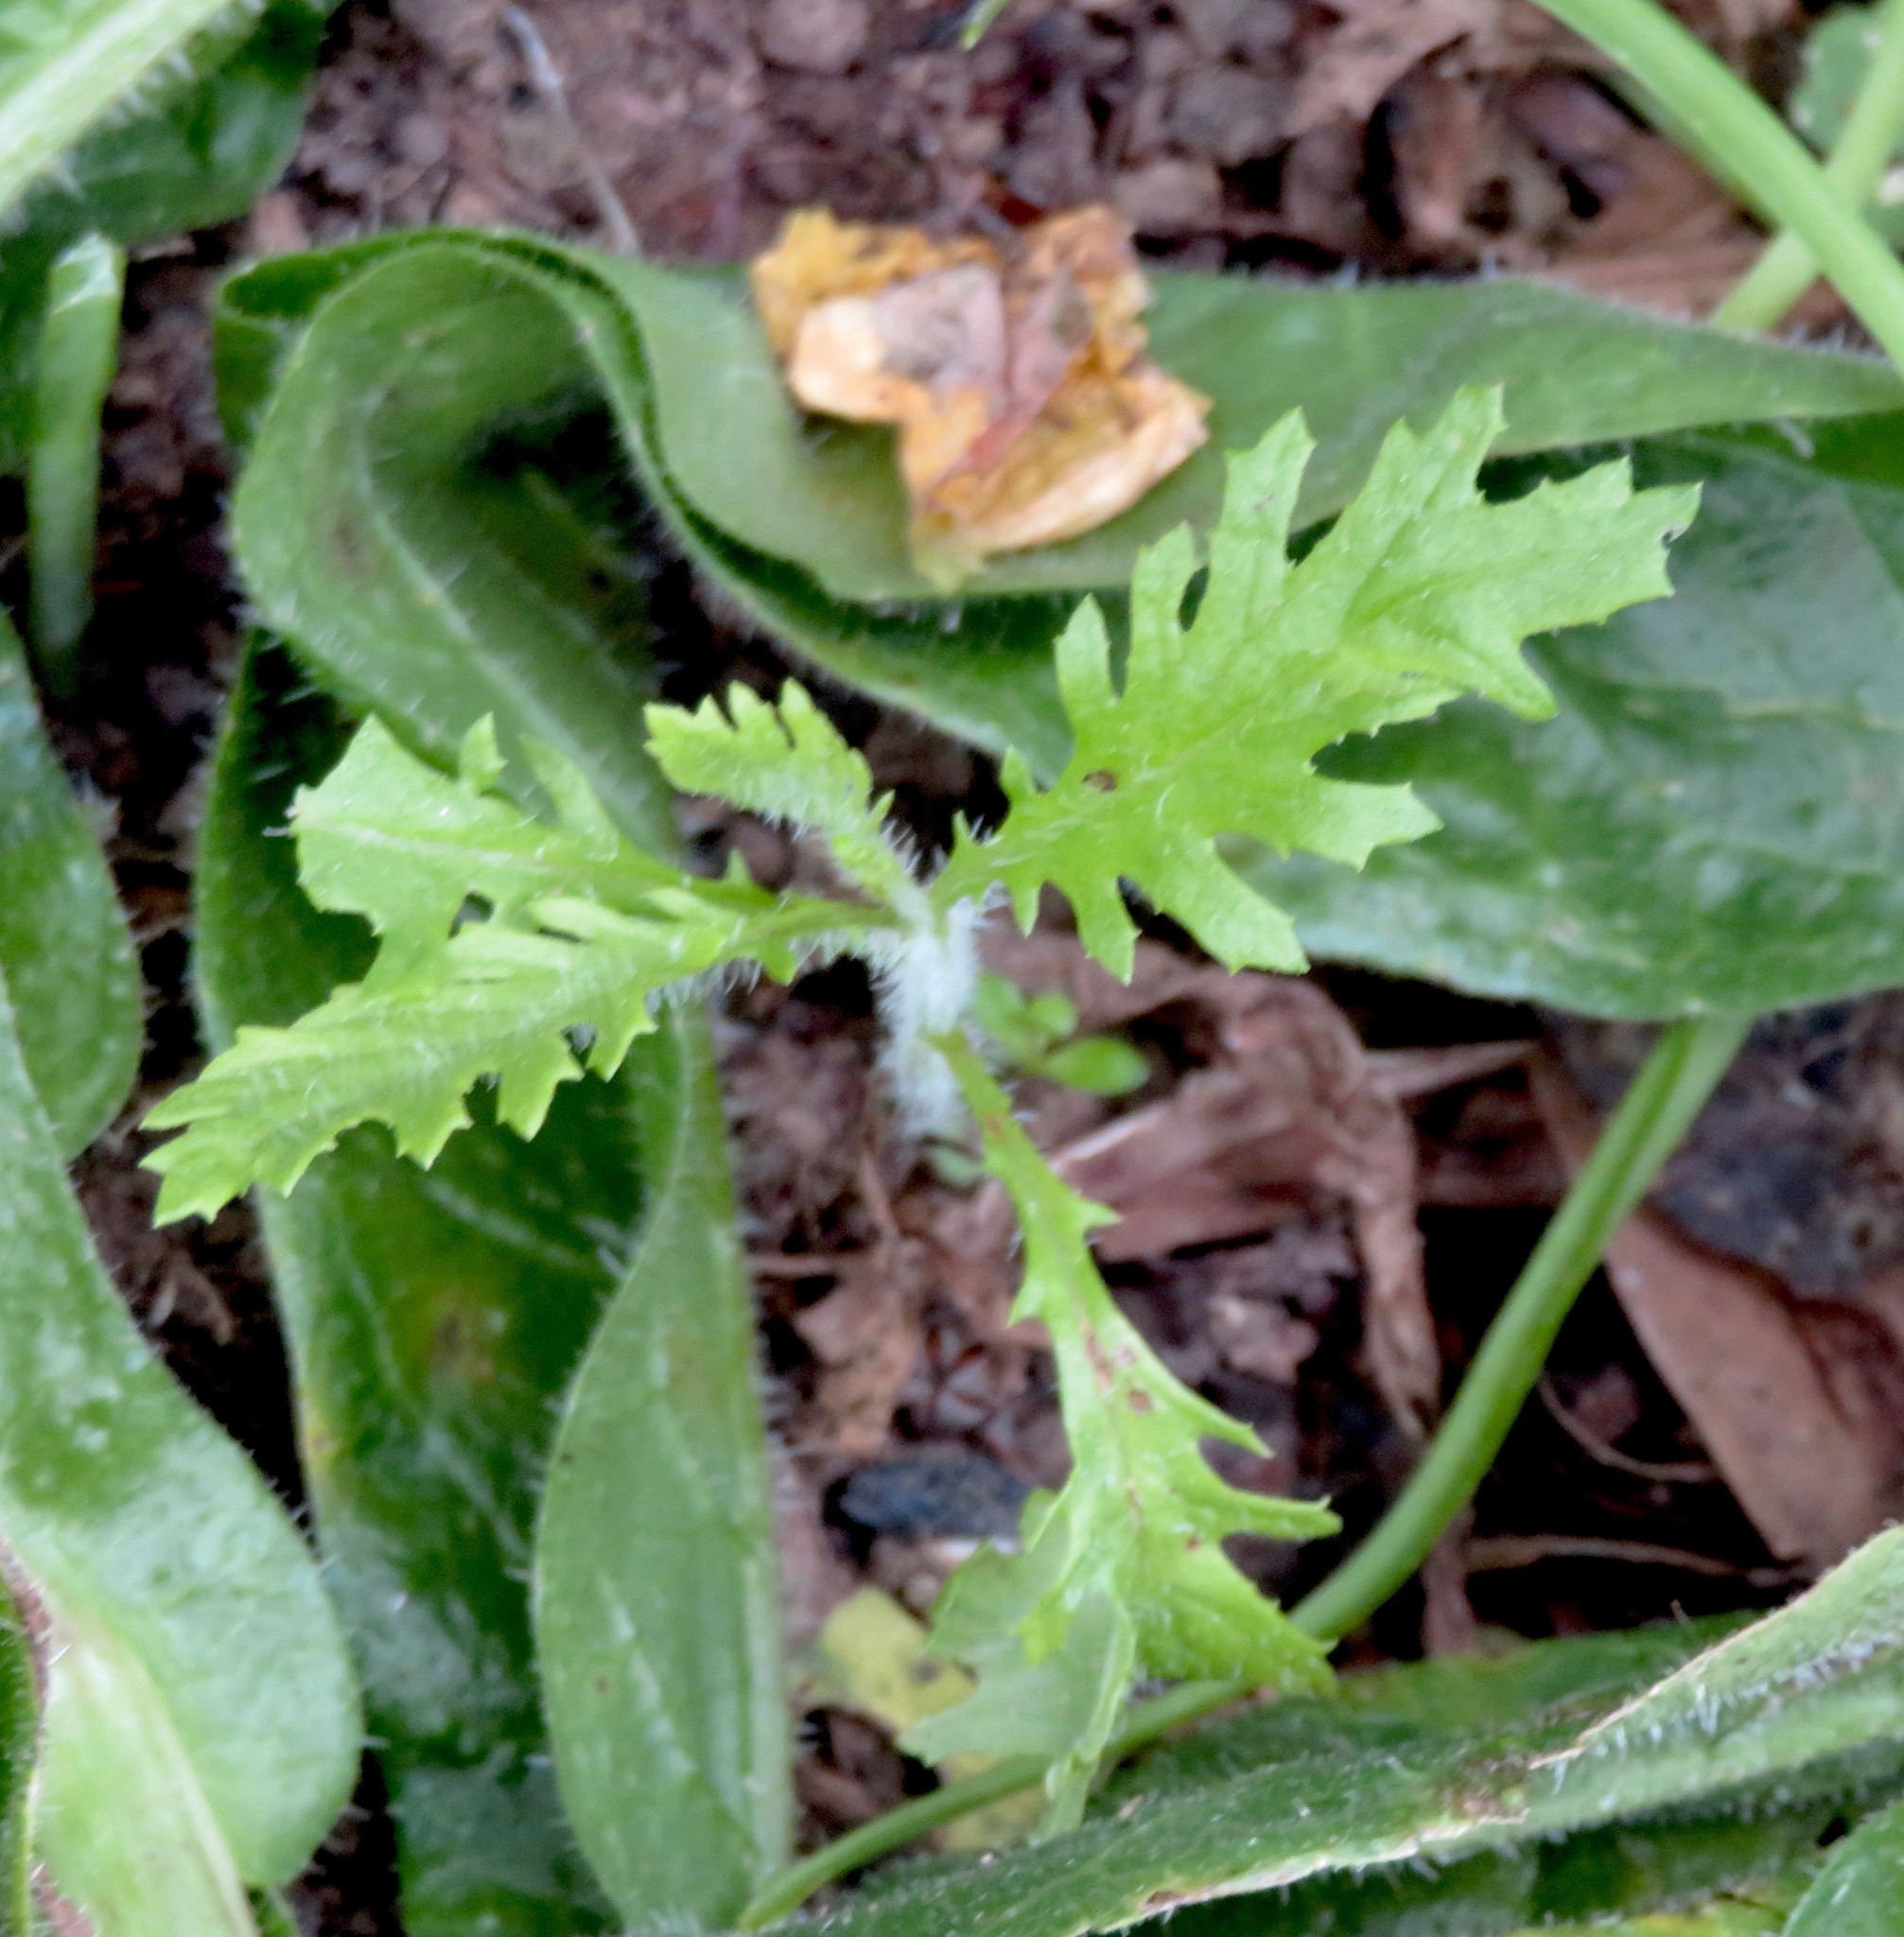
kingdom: Plantae
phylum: Tracheophyta
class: Magnoliopsida
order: Asterales
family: Asteraceae
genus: Senecio
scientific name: Senecio esleri
